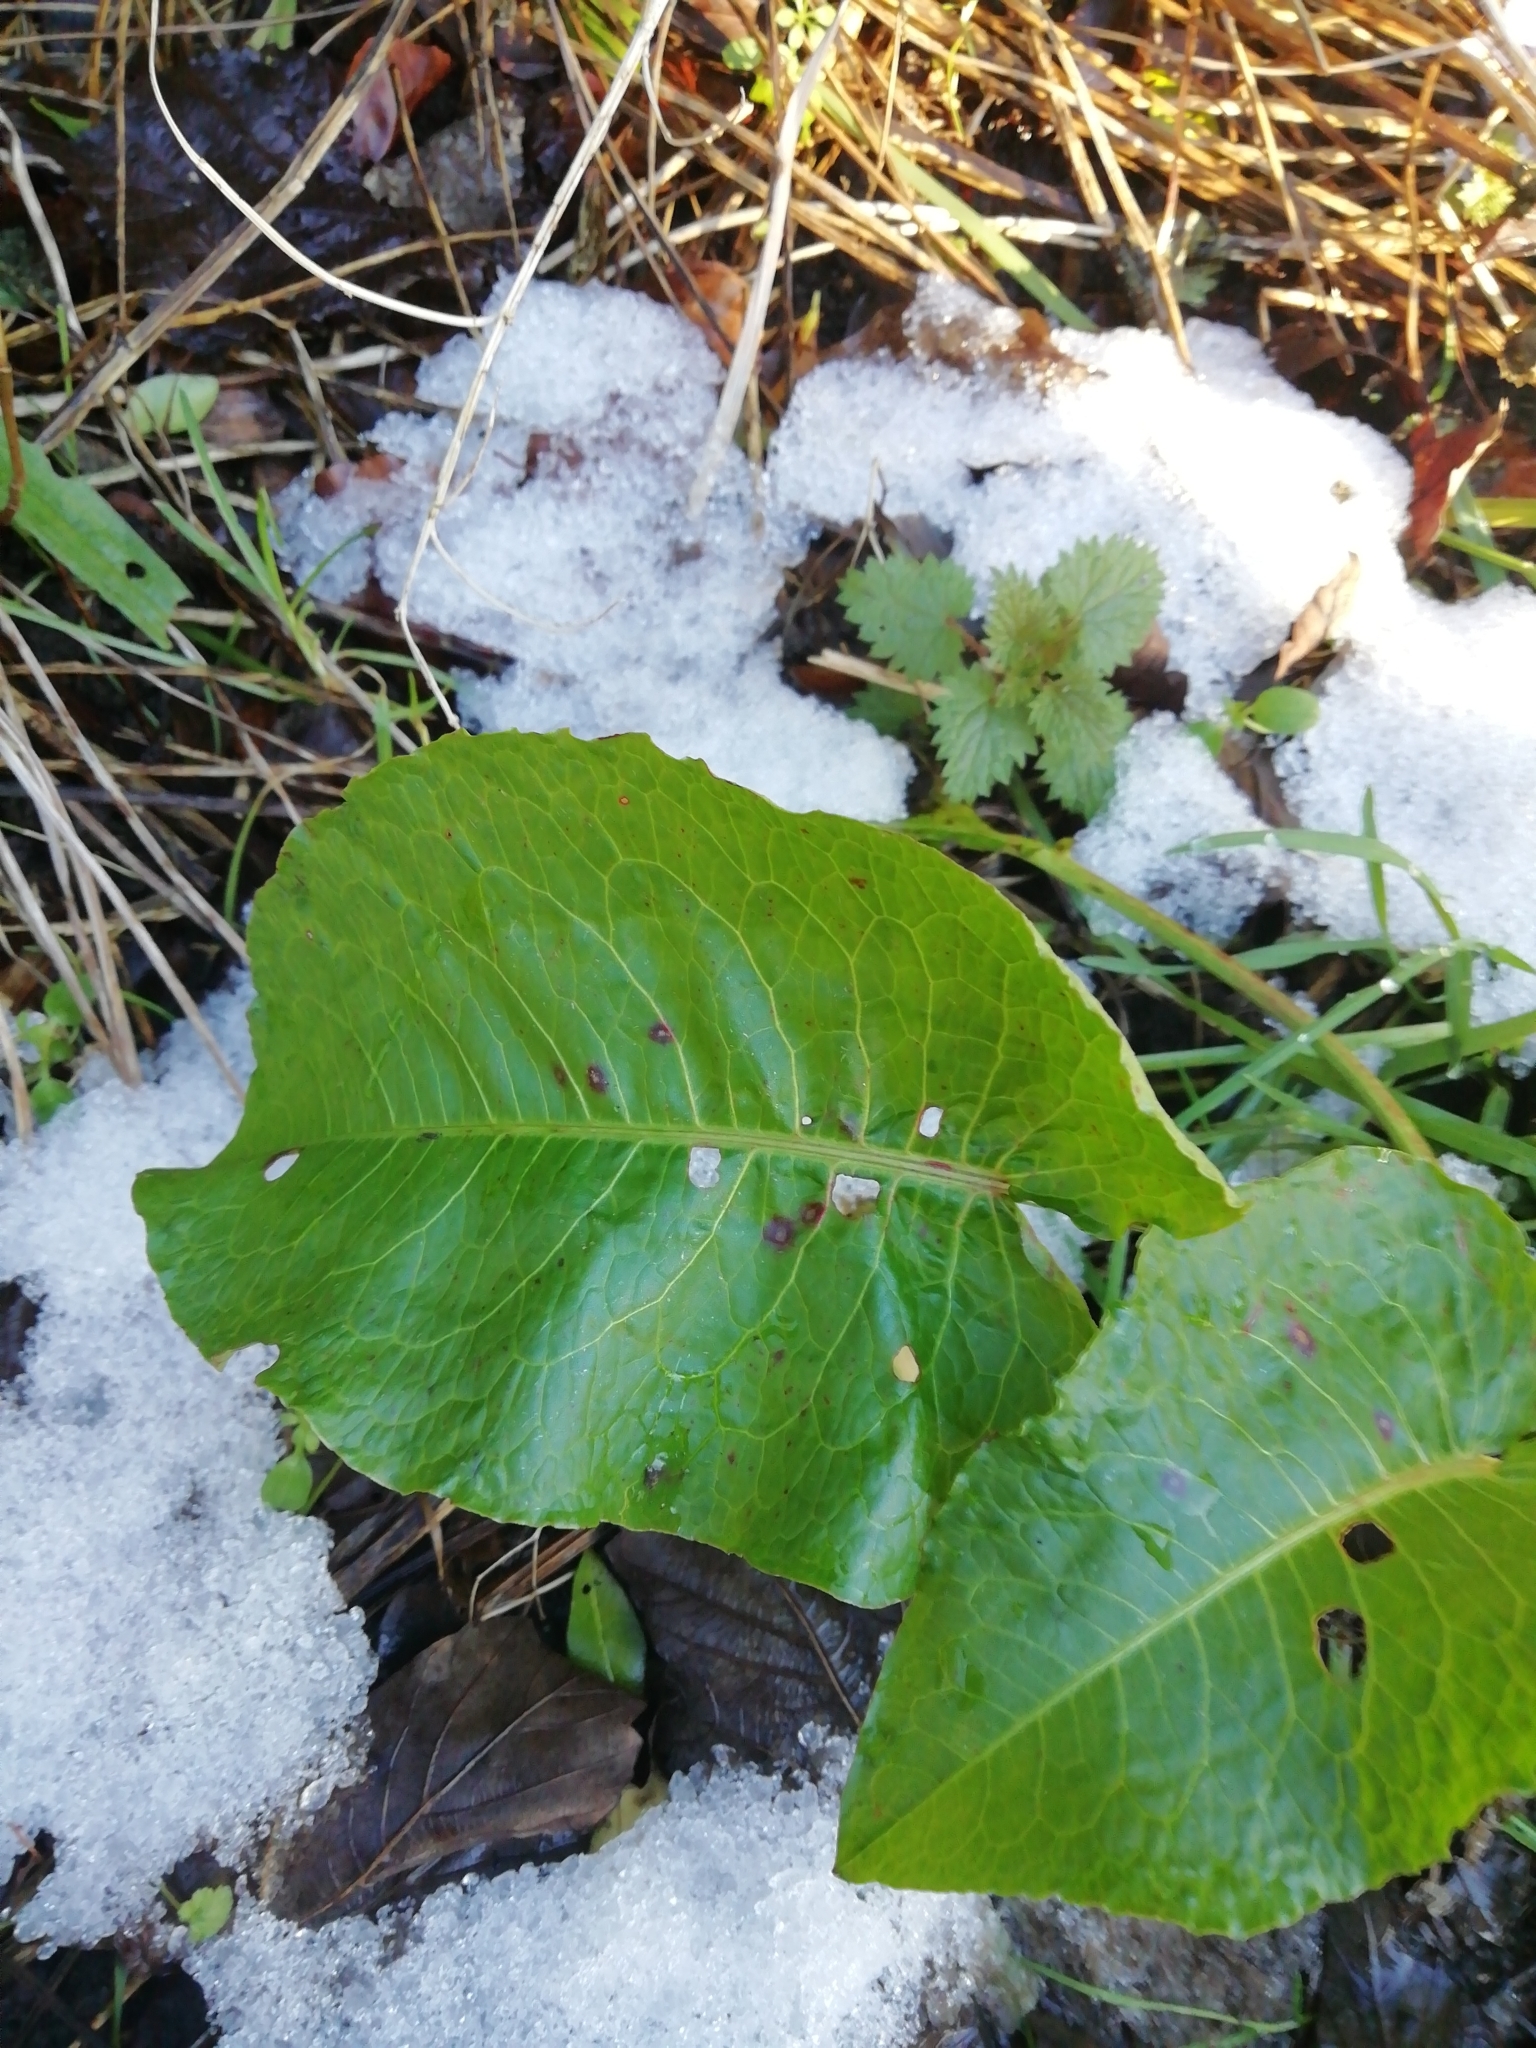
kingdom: Plantae
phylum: Tracheophyta
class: Magnoliopsida
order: Caryophyllales
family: Polygonaceae
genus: Rumex
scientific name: Rumex obtusifolius
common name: Bitter dock
